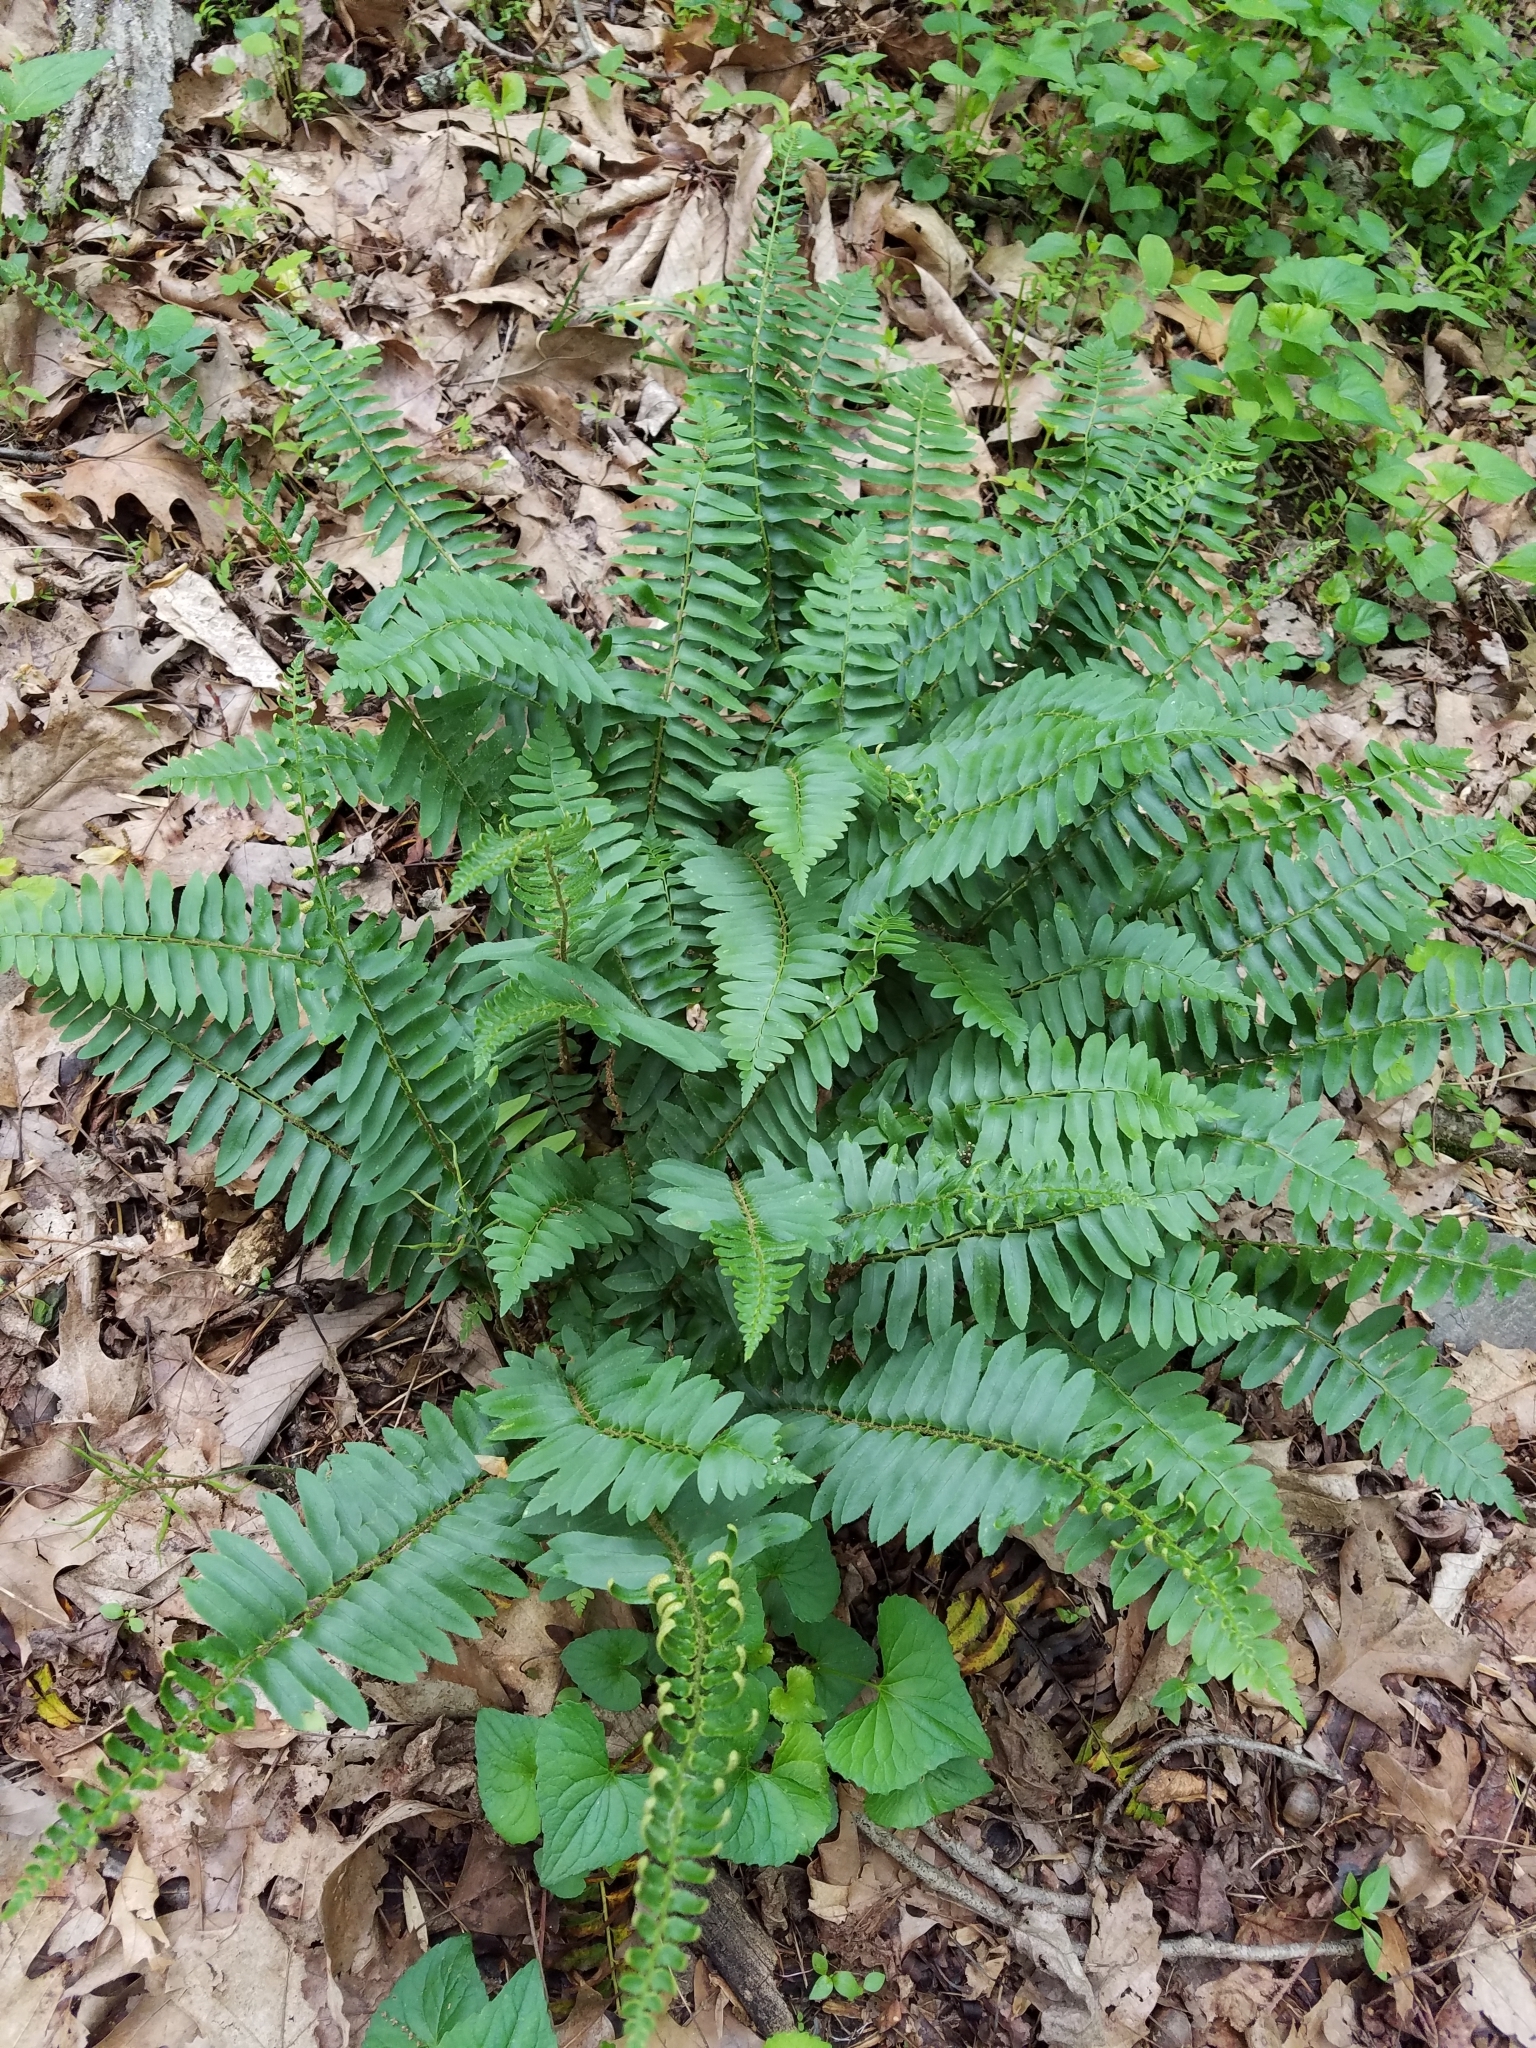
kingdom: Plantae
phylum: Tracheophyta
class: Polypodiopsida
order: Polypodiales
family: Dryopteridaceae
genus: Polystichum
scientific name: Polystichum acrostichoides
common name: Christmas fern
